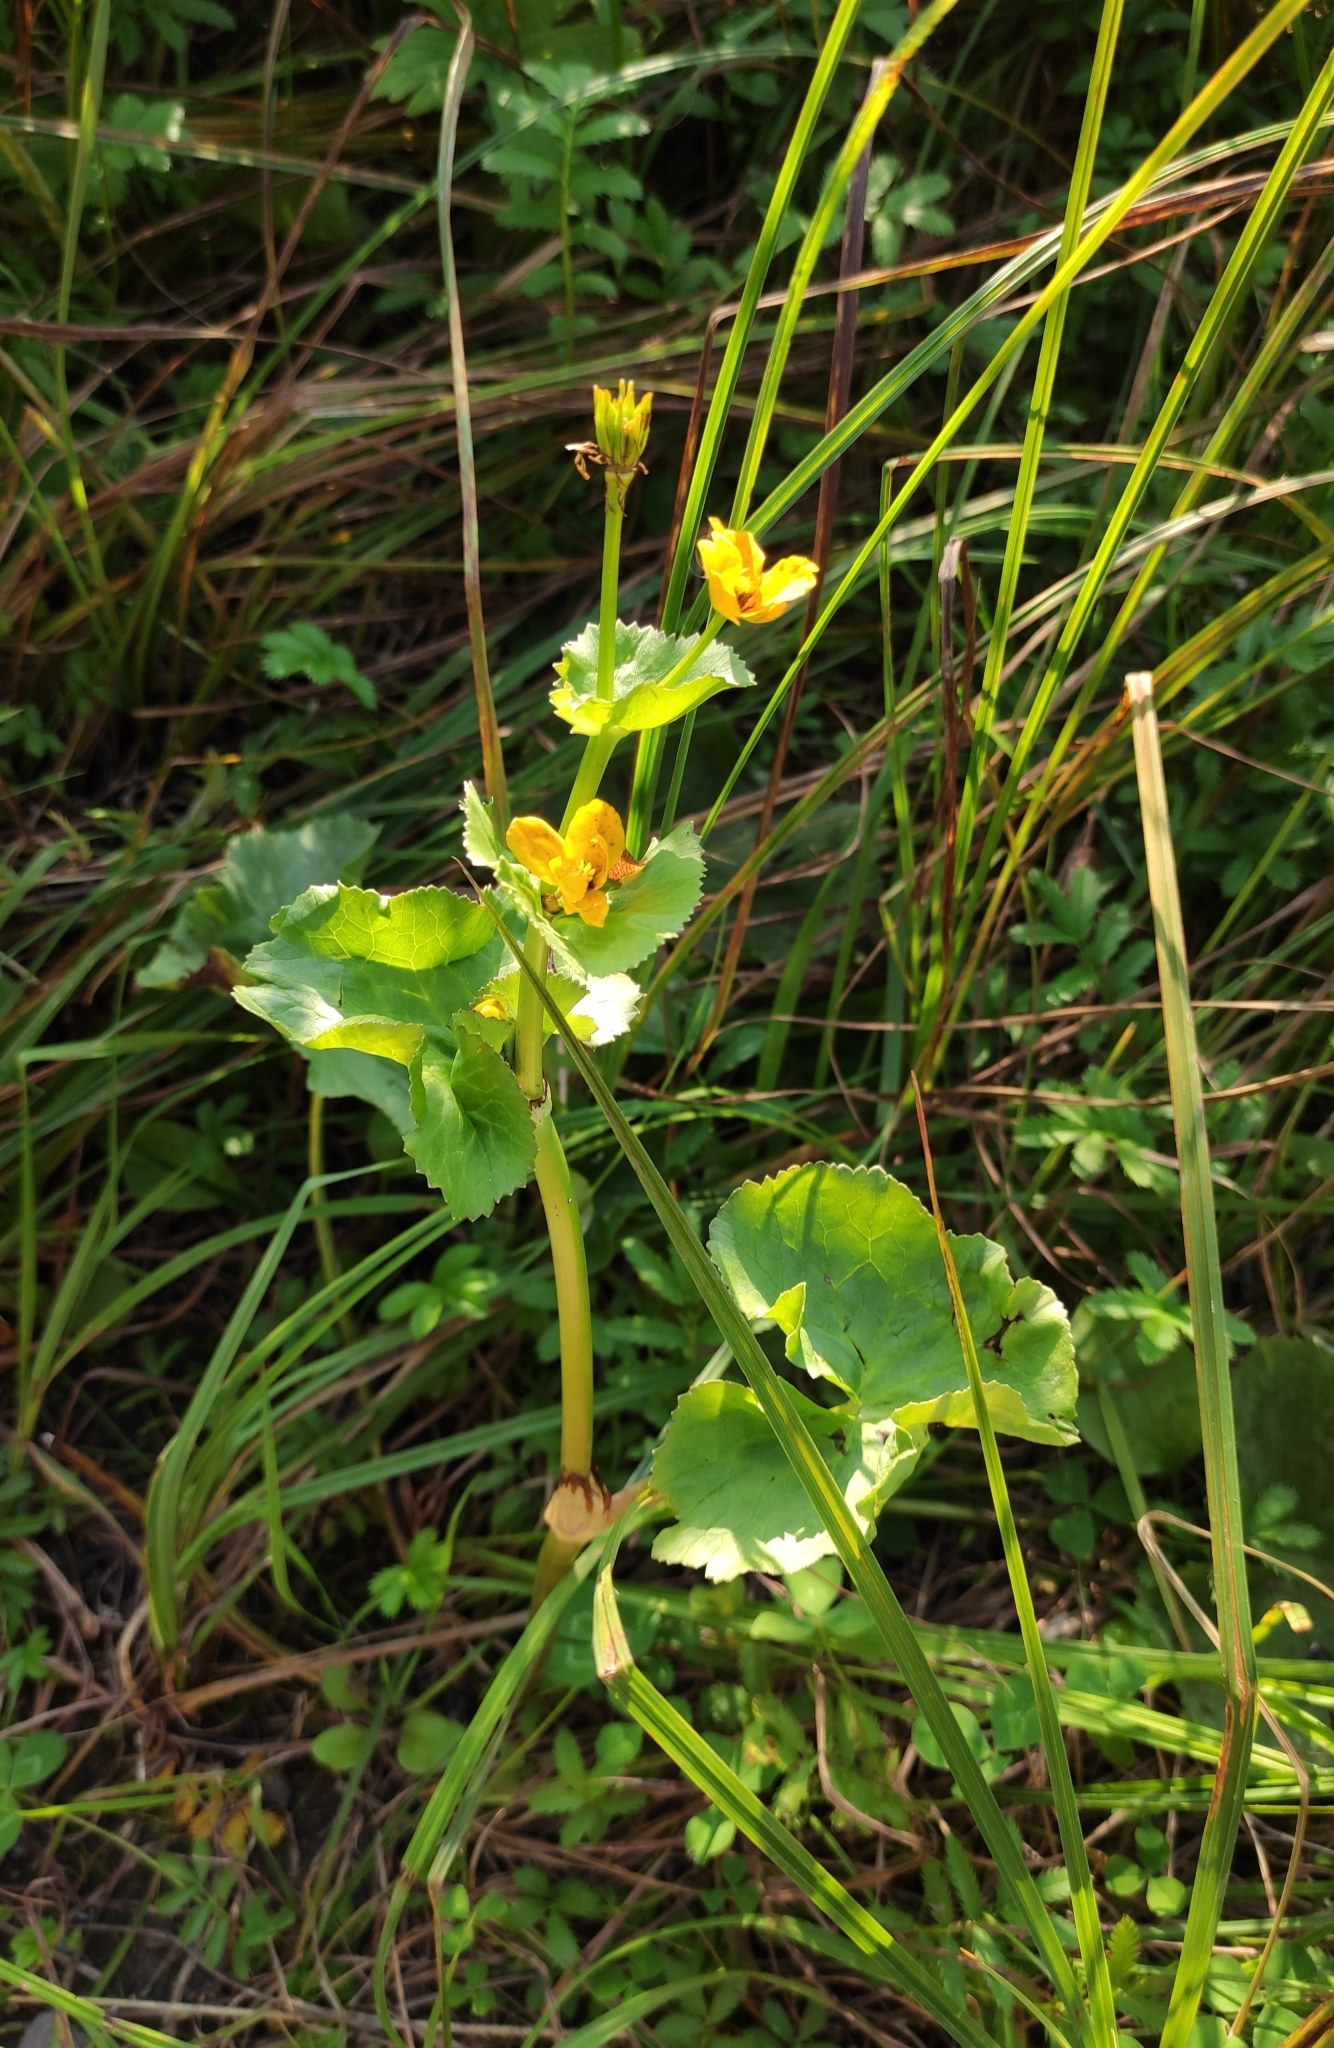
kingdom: Plantae
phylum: Tracheophyta
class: Magnoliopsida
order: Ranunculales
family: Ranunculaceae
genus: Caltha
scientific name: Caltha palustris
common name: Marsh marigold
